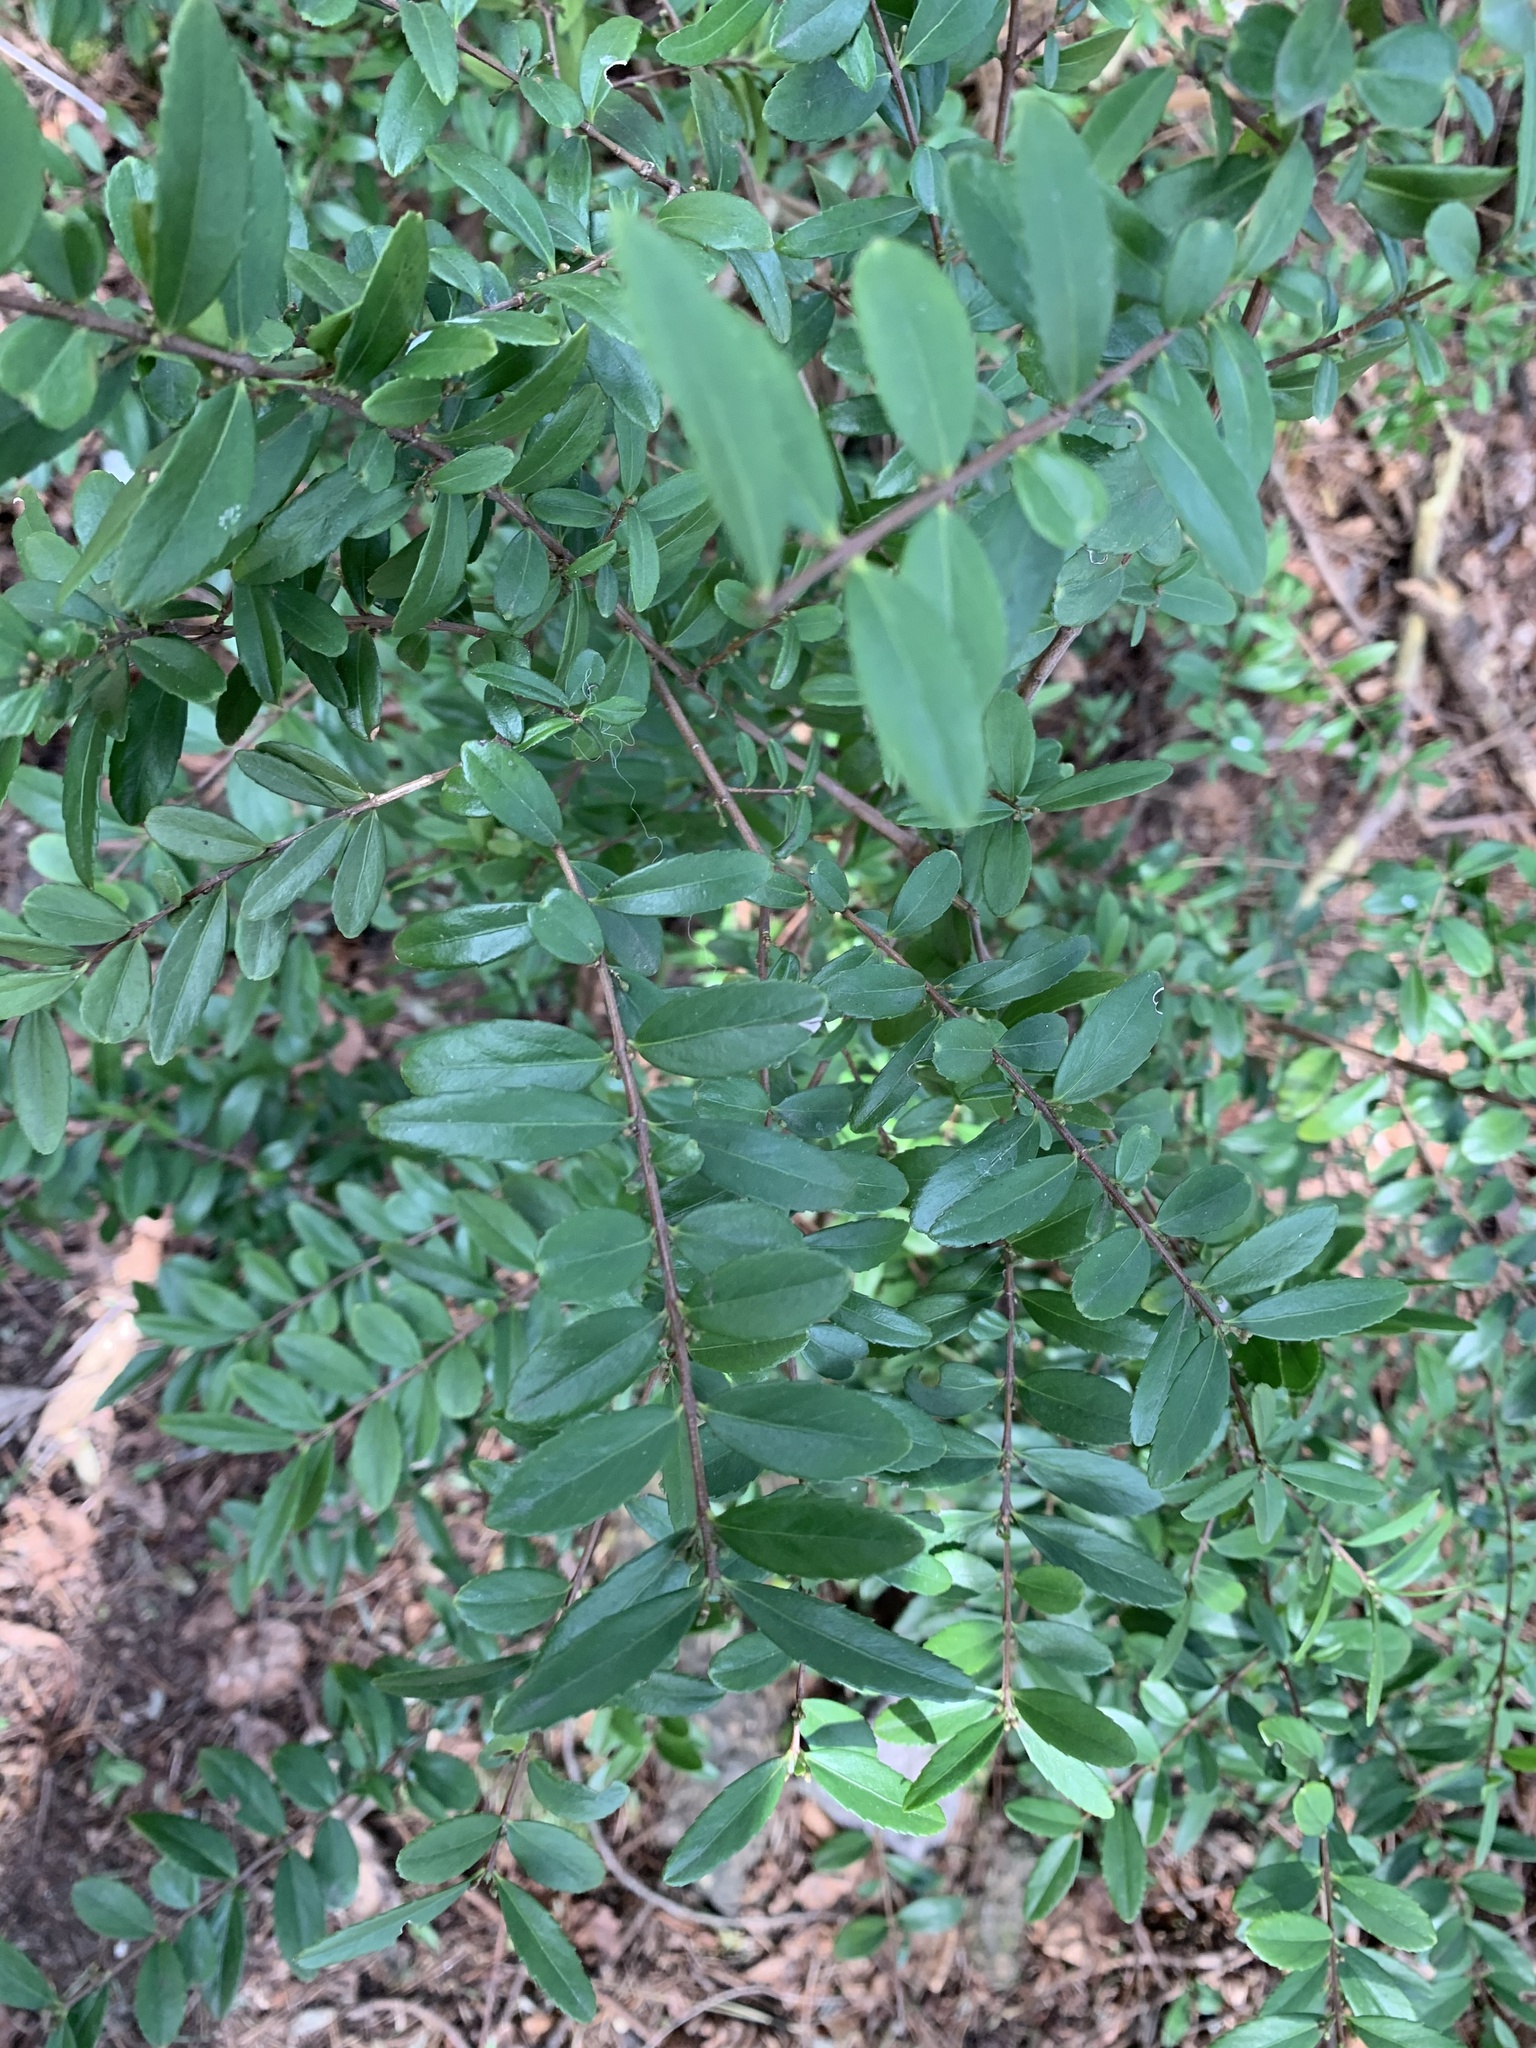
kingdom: Plantae
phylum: Tracheophyta
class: Magnoliopsida
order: Celastrales
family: Celastraceae
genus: Paxistima
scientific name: Paxistima myrsinites
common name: Mountain-lover
